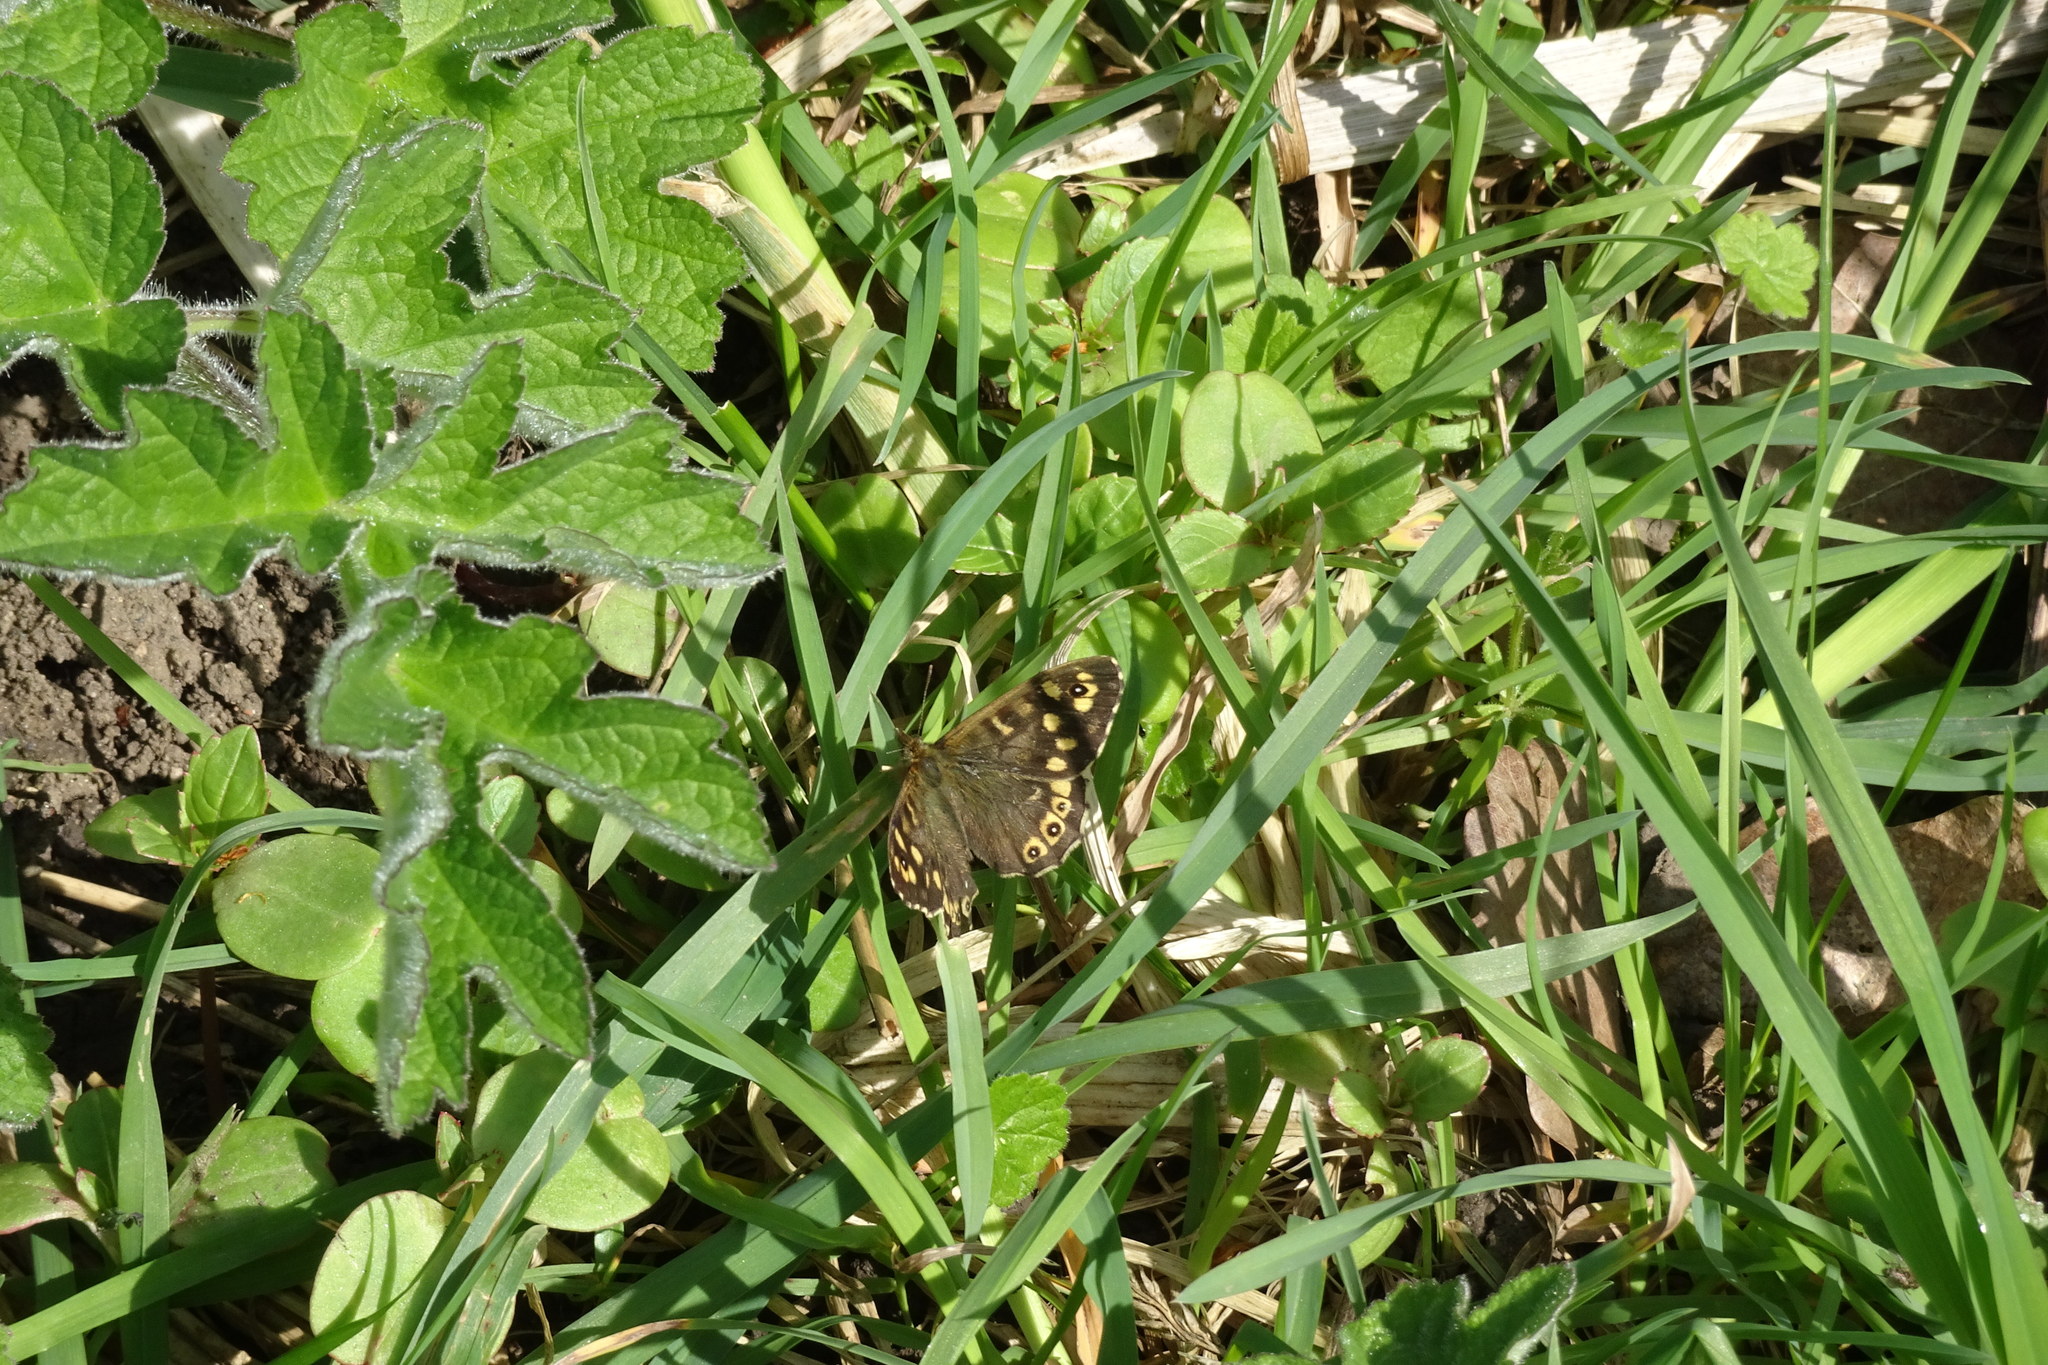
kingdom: Animalia
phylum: Arthropoda
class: Insecta
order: Lepidoptera
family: Nymphalidae
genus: Pararge
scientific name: Pararge aegeria
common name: Speckled wood
